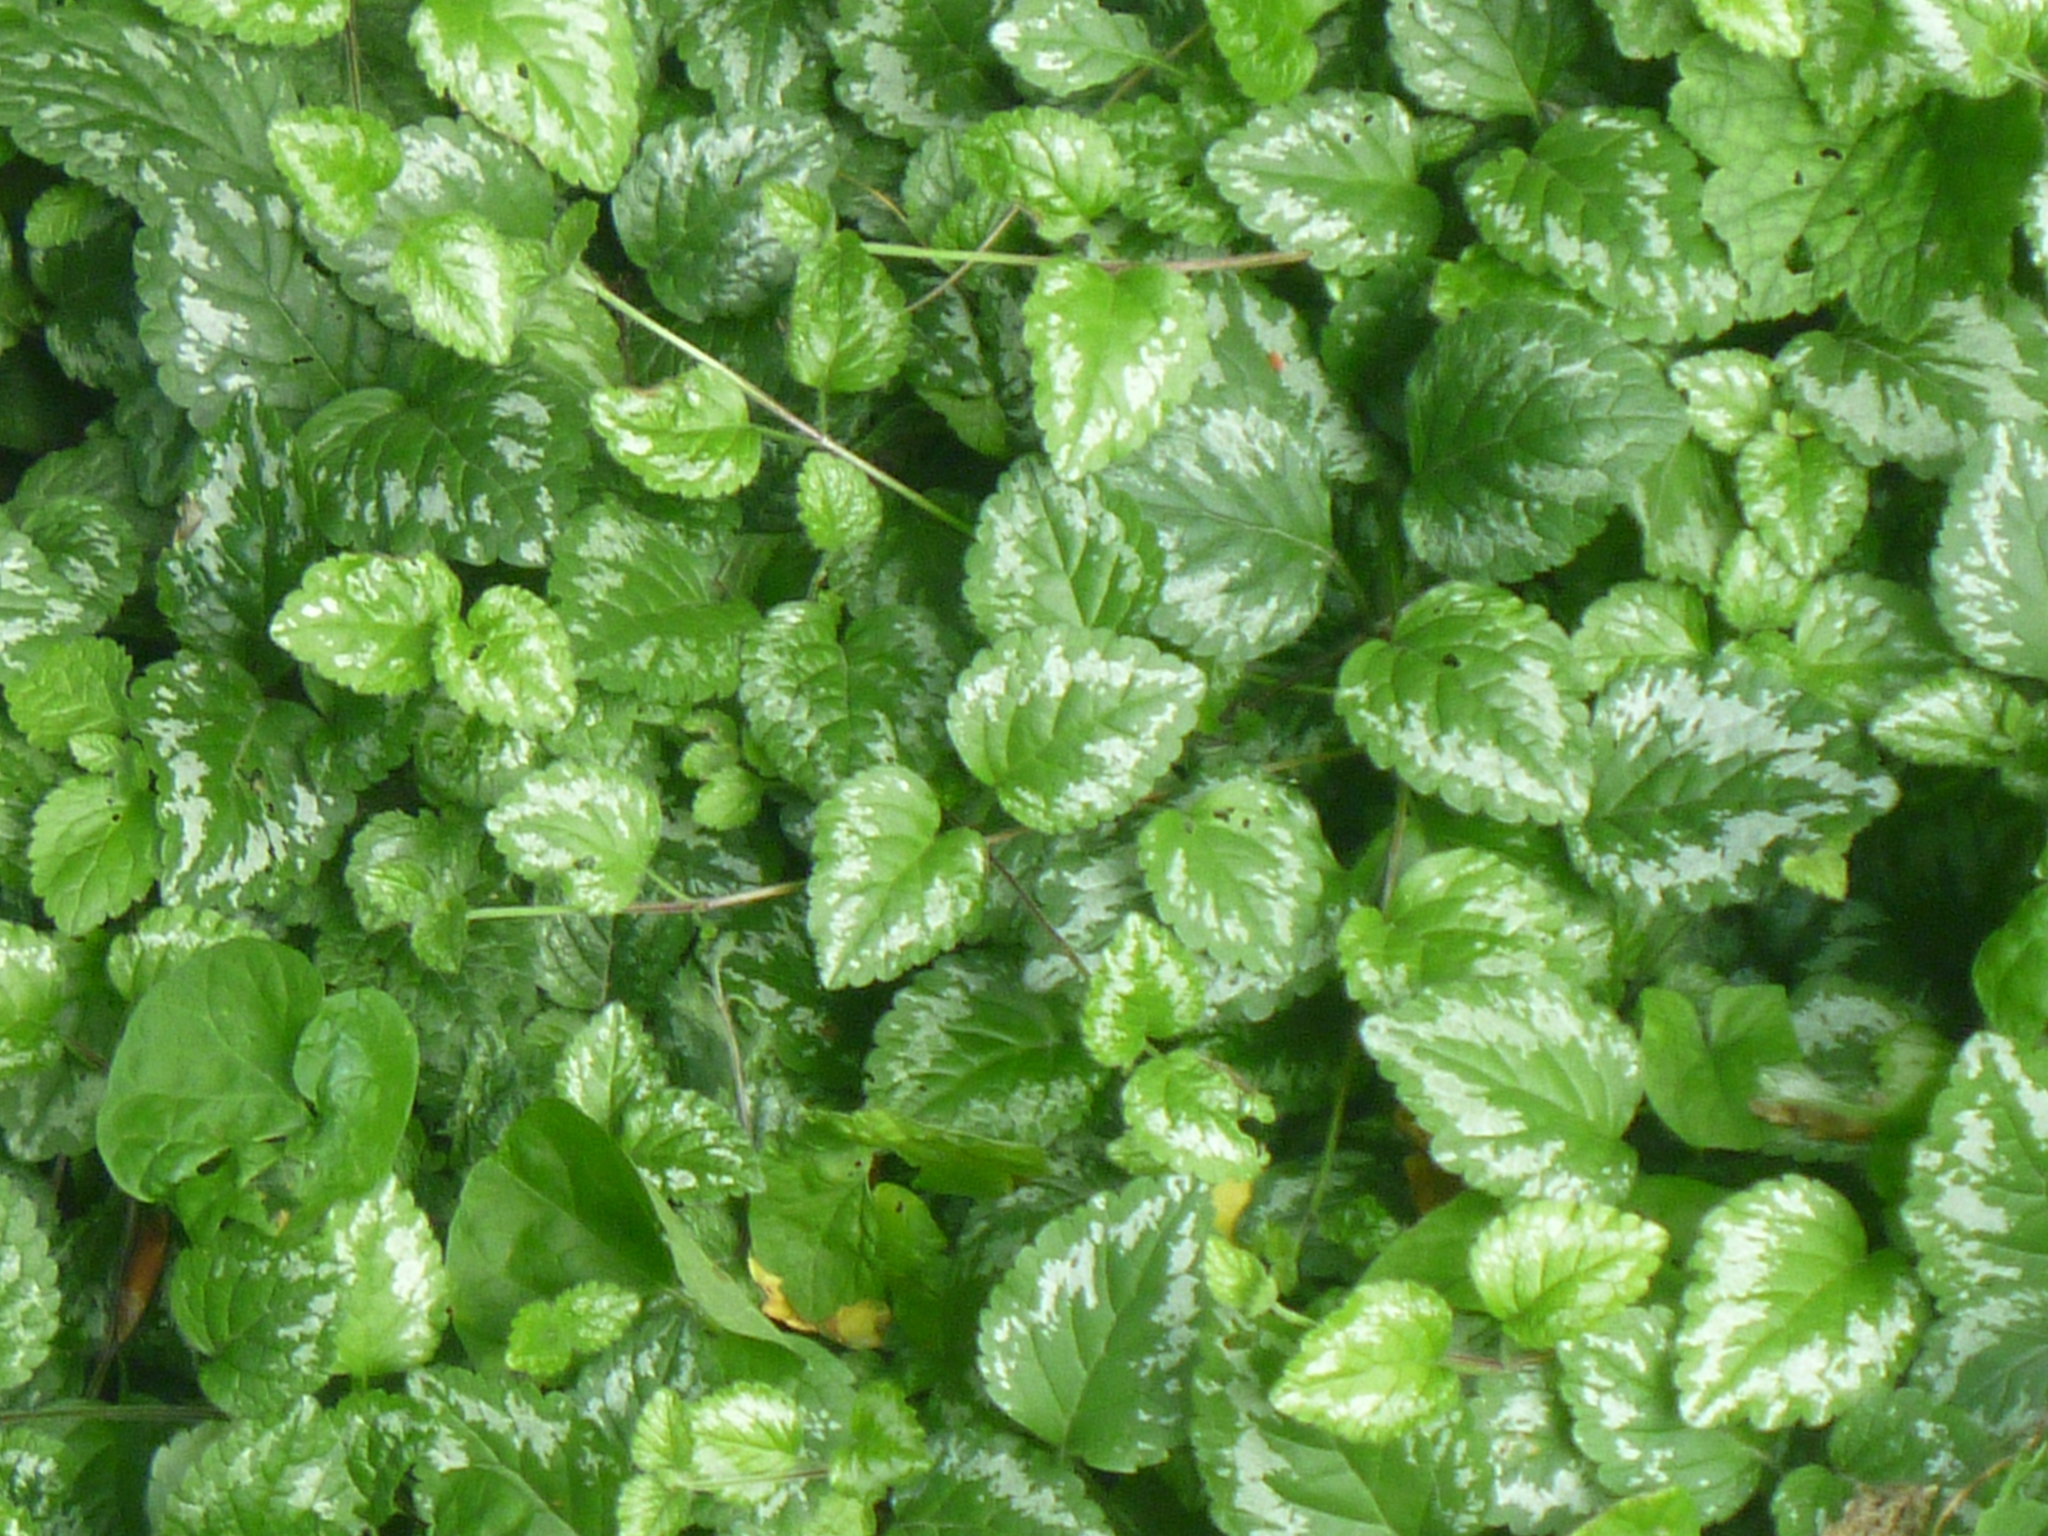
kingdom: Plantae
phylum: Tracheophyta
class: Magnoliopsida
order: Lamiales
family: Lamiaceae
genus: Lamium
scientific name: Lamium galeobdolon
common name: Yellow archangel
